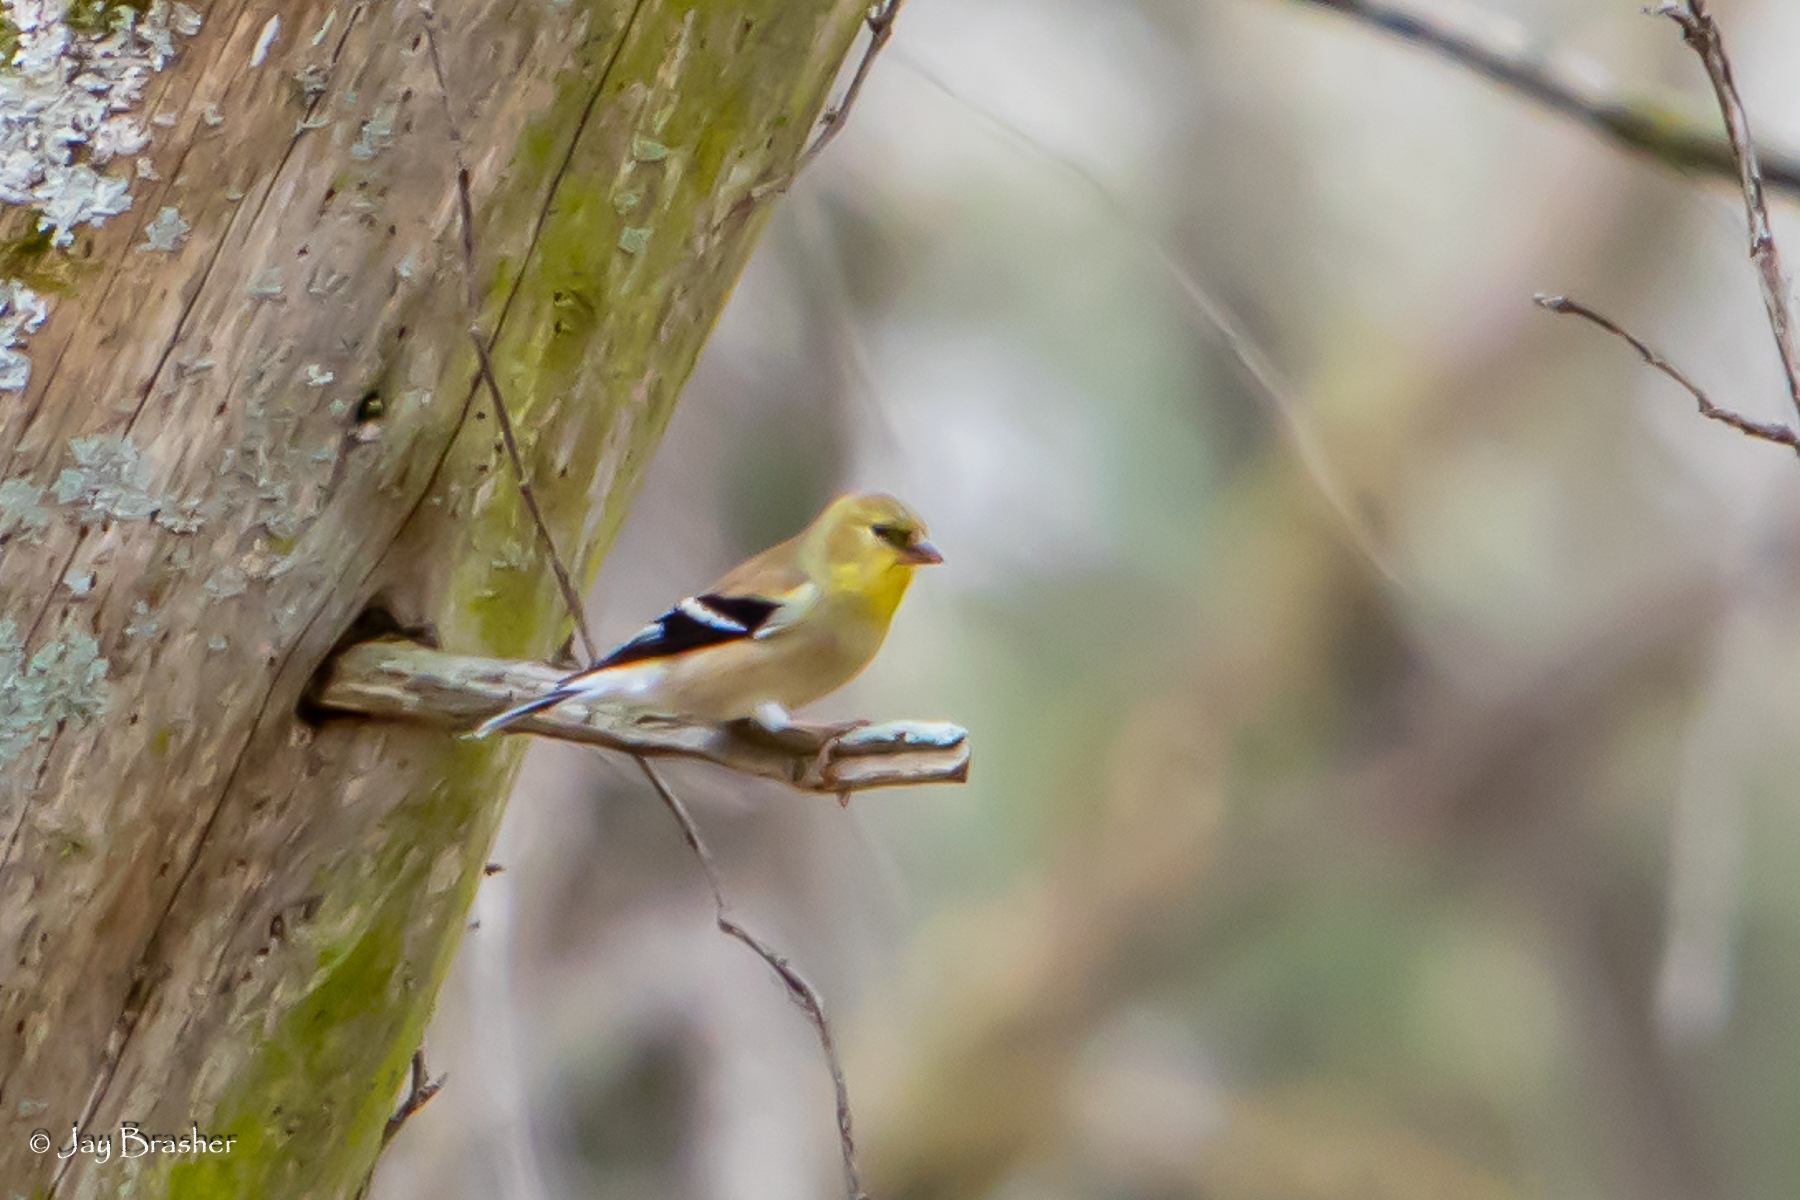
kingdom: Animalia
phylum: Chordata
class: Aves
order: Passeriformes
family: Fringillidae
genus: Spinus
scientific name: Spinus tristis
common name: American goldfinch
